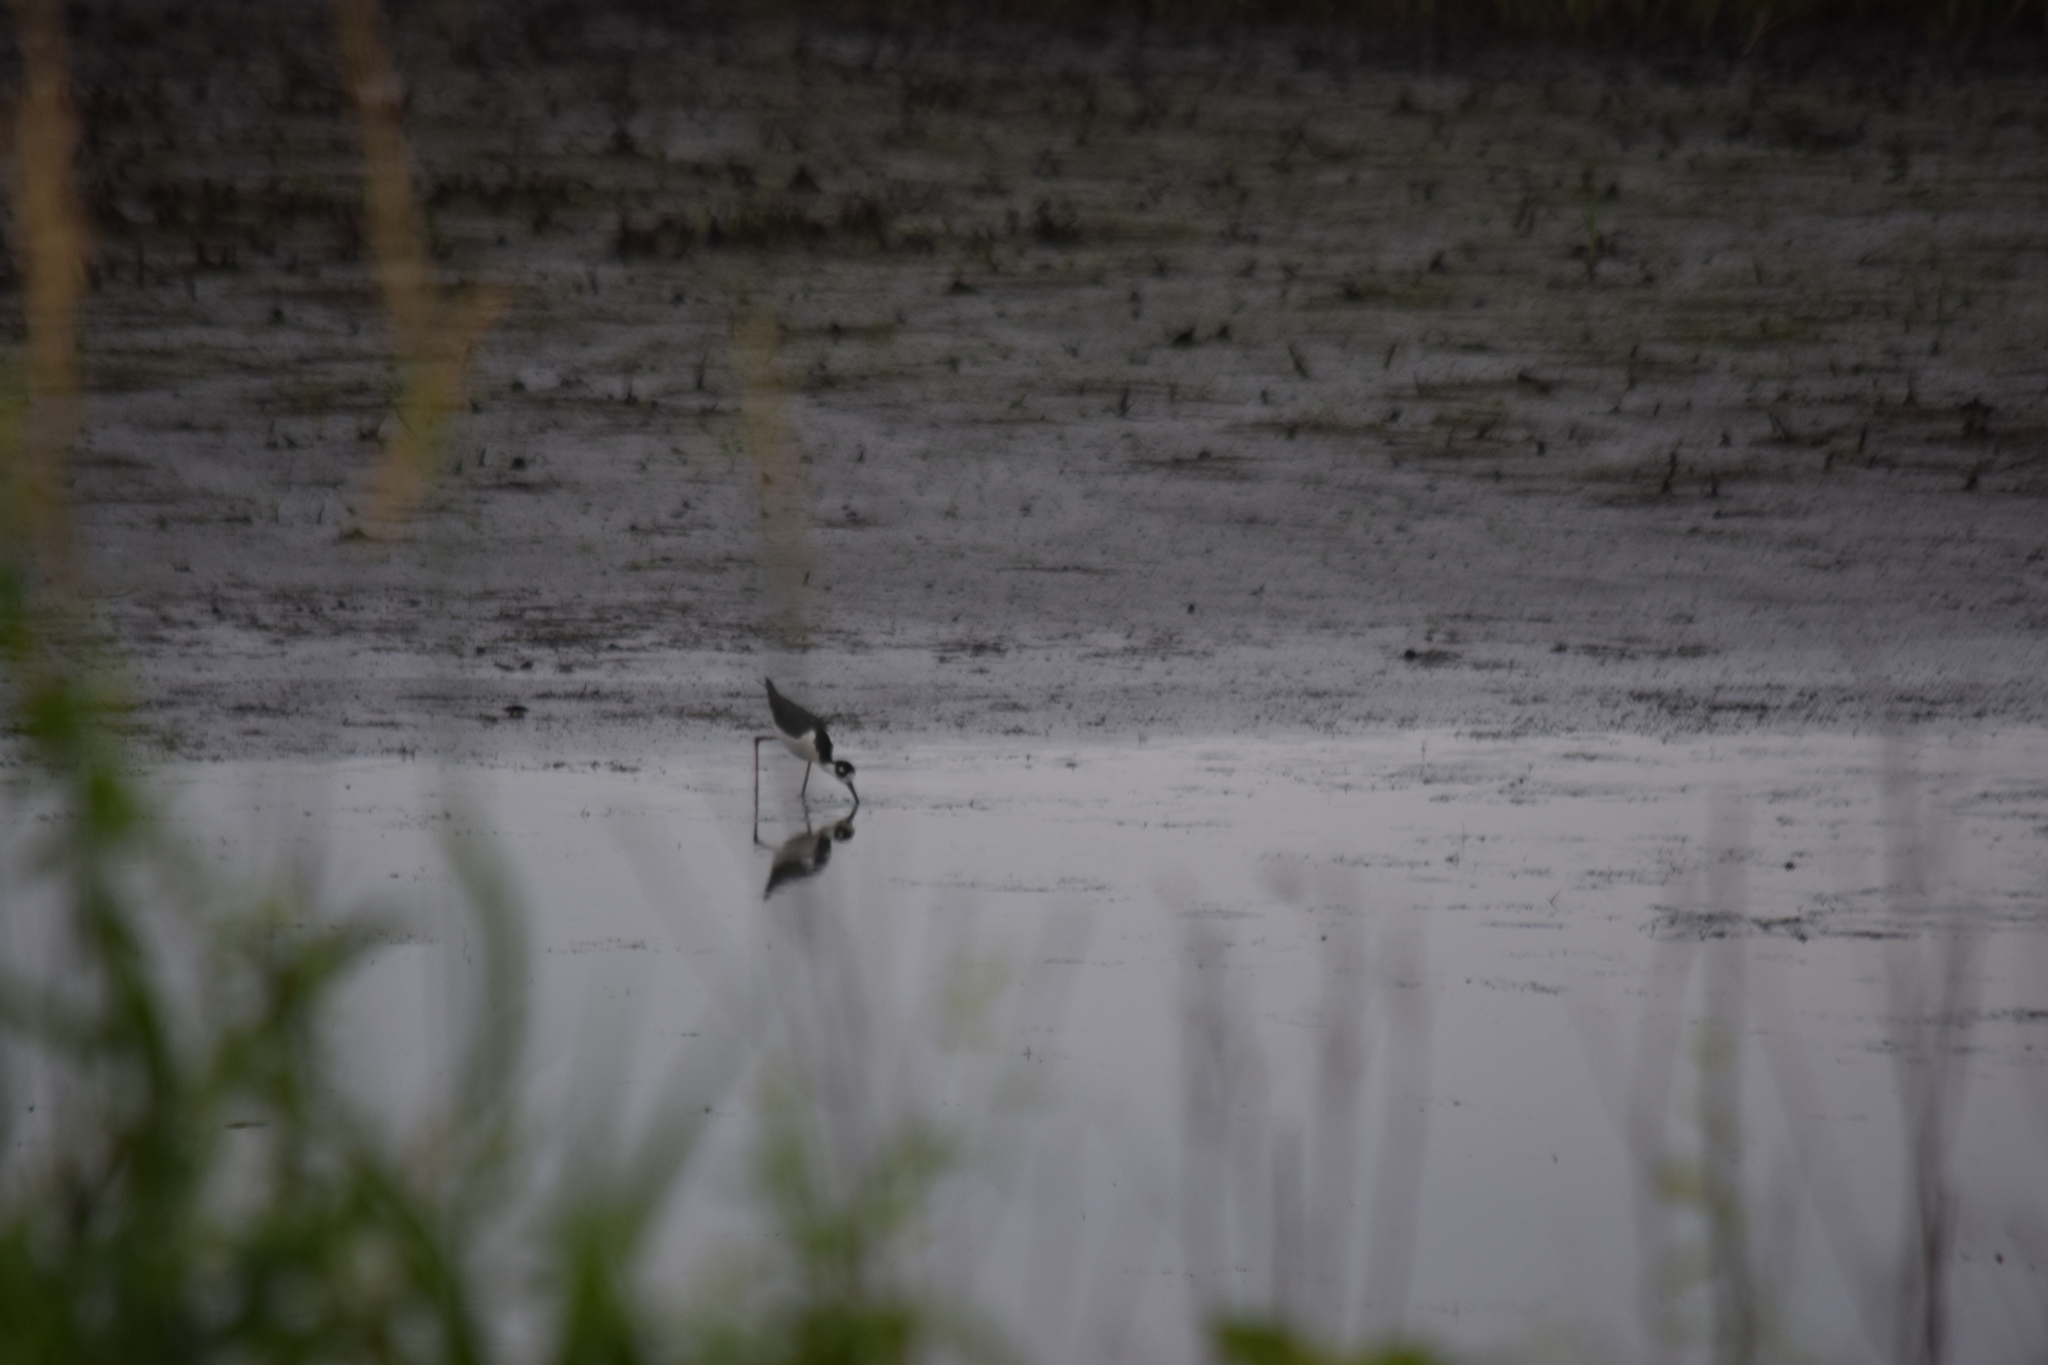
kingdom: Animalia
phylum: Chordata
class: Aves
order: Charadriiformes
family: Recurvirostridae
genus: Himantopus
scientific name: Himantopus mexicanus
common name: Black-necked stilt
